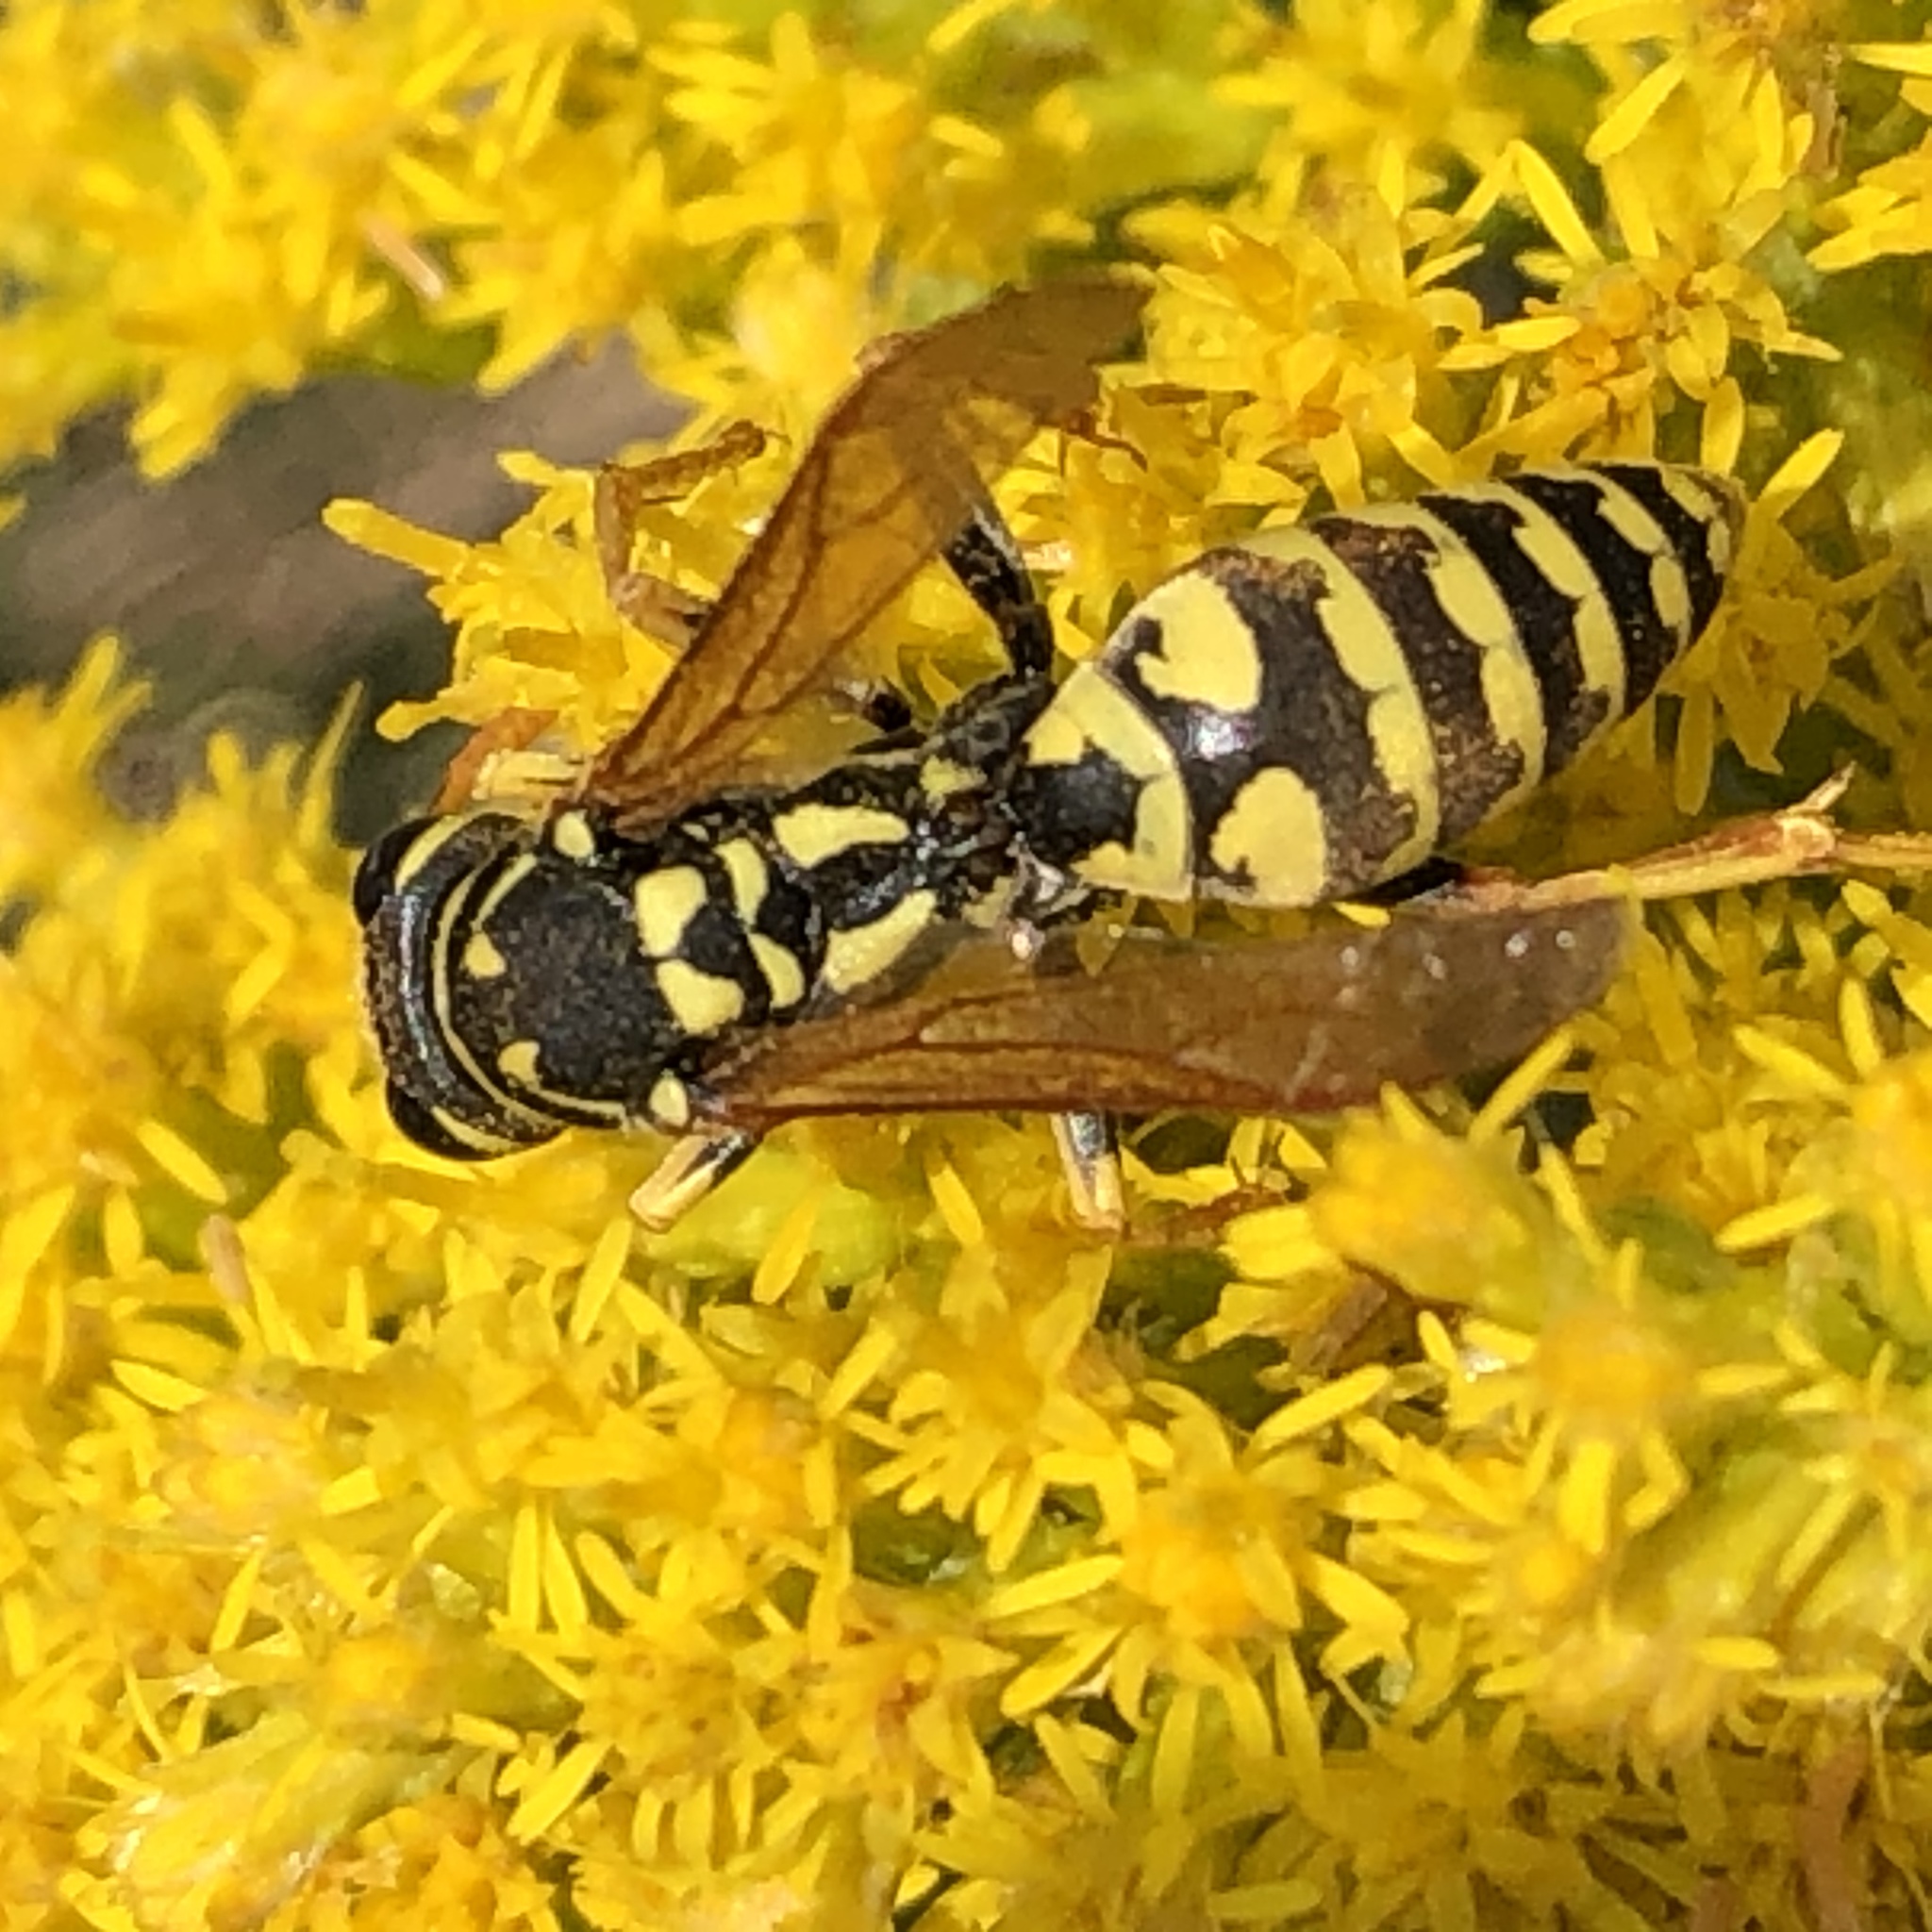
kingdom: Animalia
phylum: Arthropoda
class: Insecta
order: Hymenoptera
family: Eumenidae
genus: Polistes
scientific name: Polistes dominula
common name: Paper wasp
